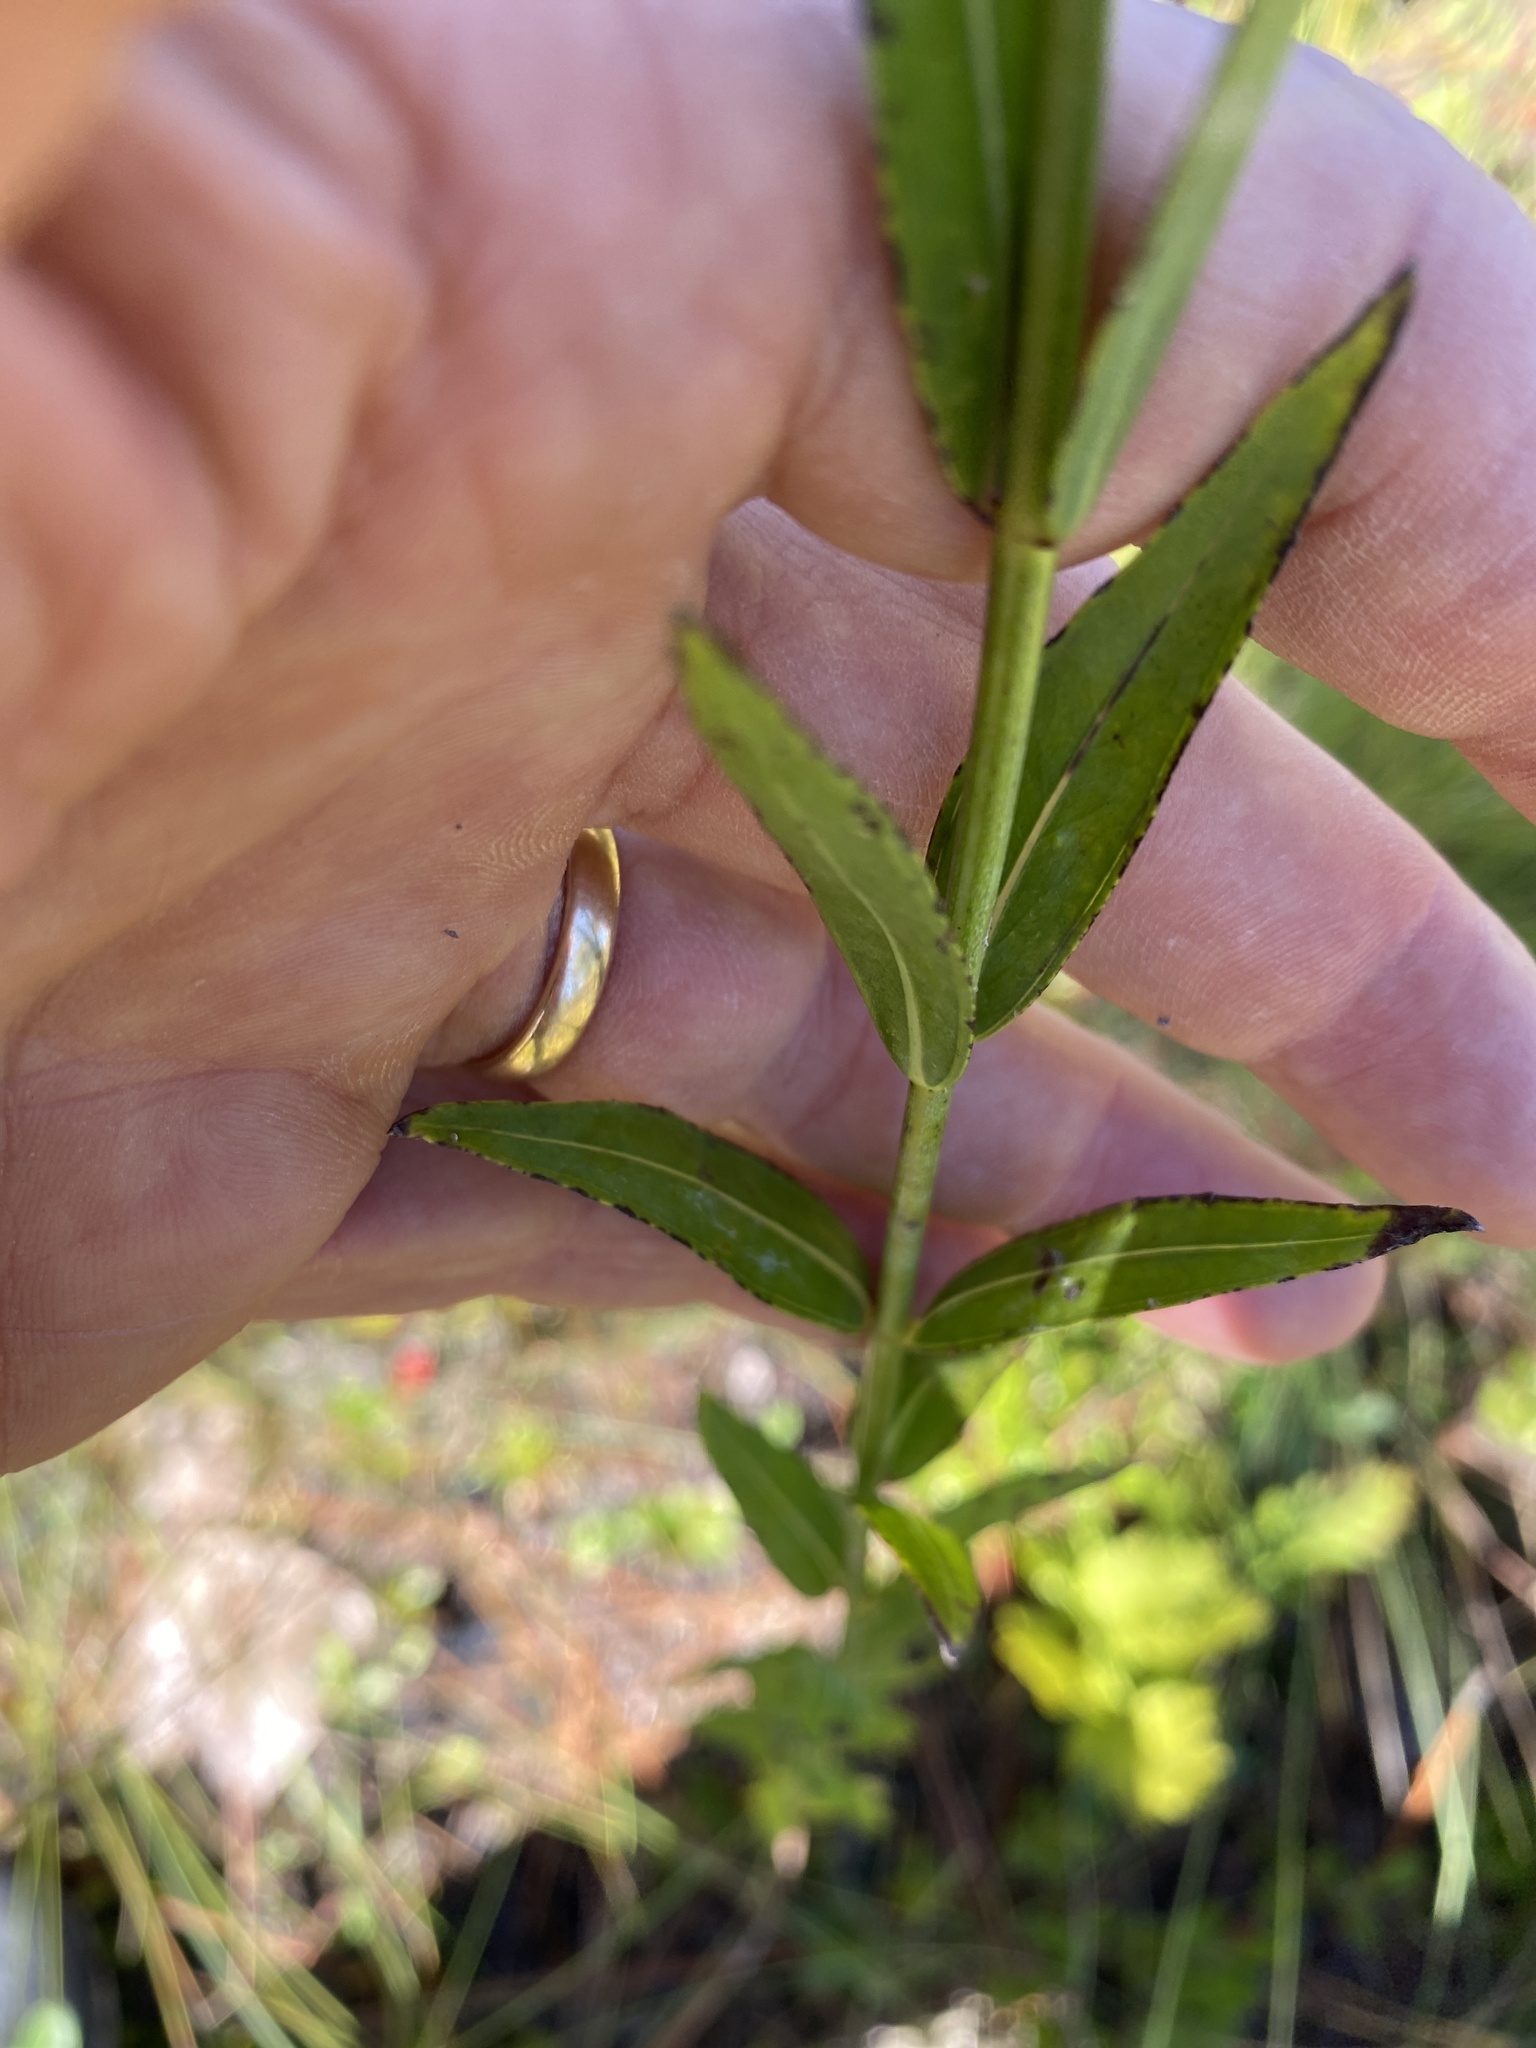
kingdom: Plantae
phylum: Tracheophyta
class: Magnoliopsida
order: Myrtales
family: Melastomataceae
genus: Rhexia
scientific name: Rhexia alifanus
